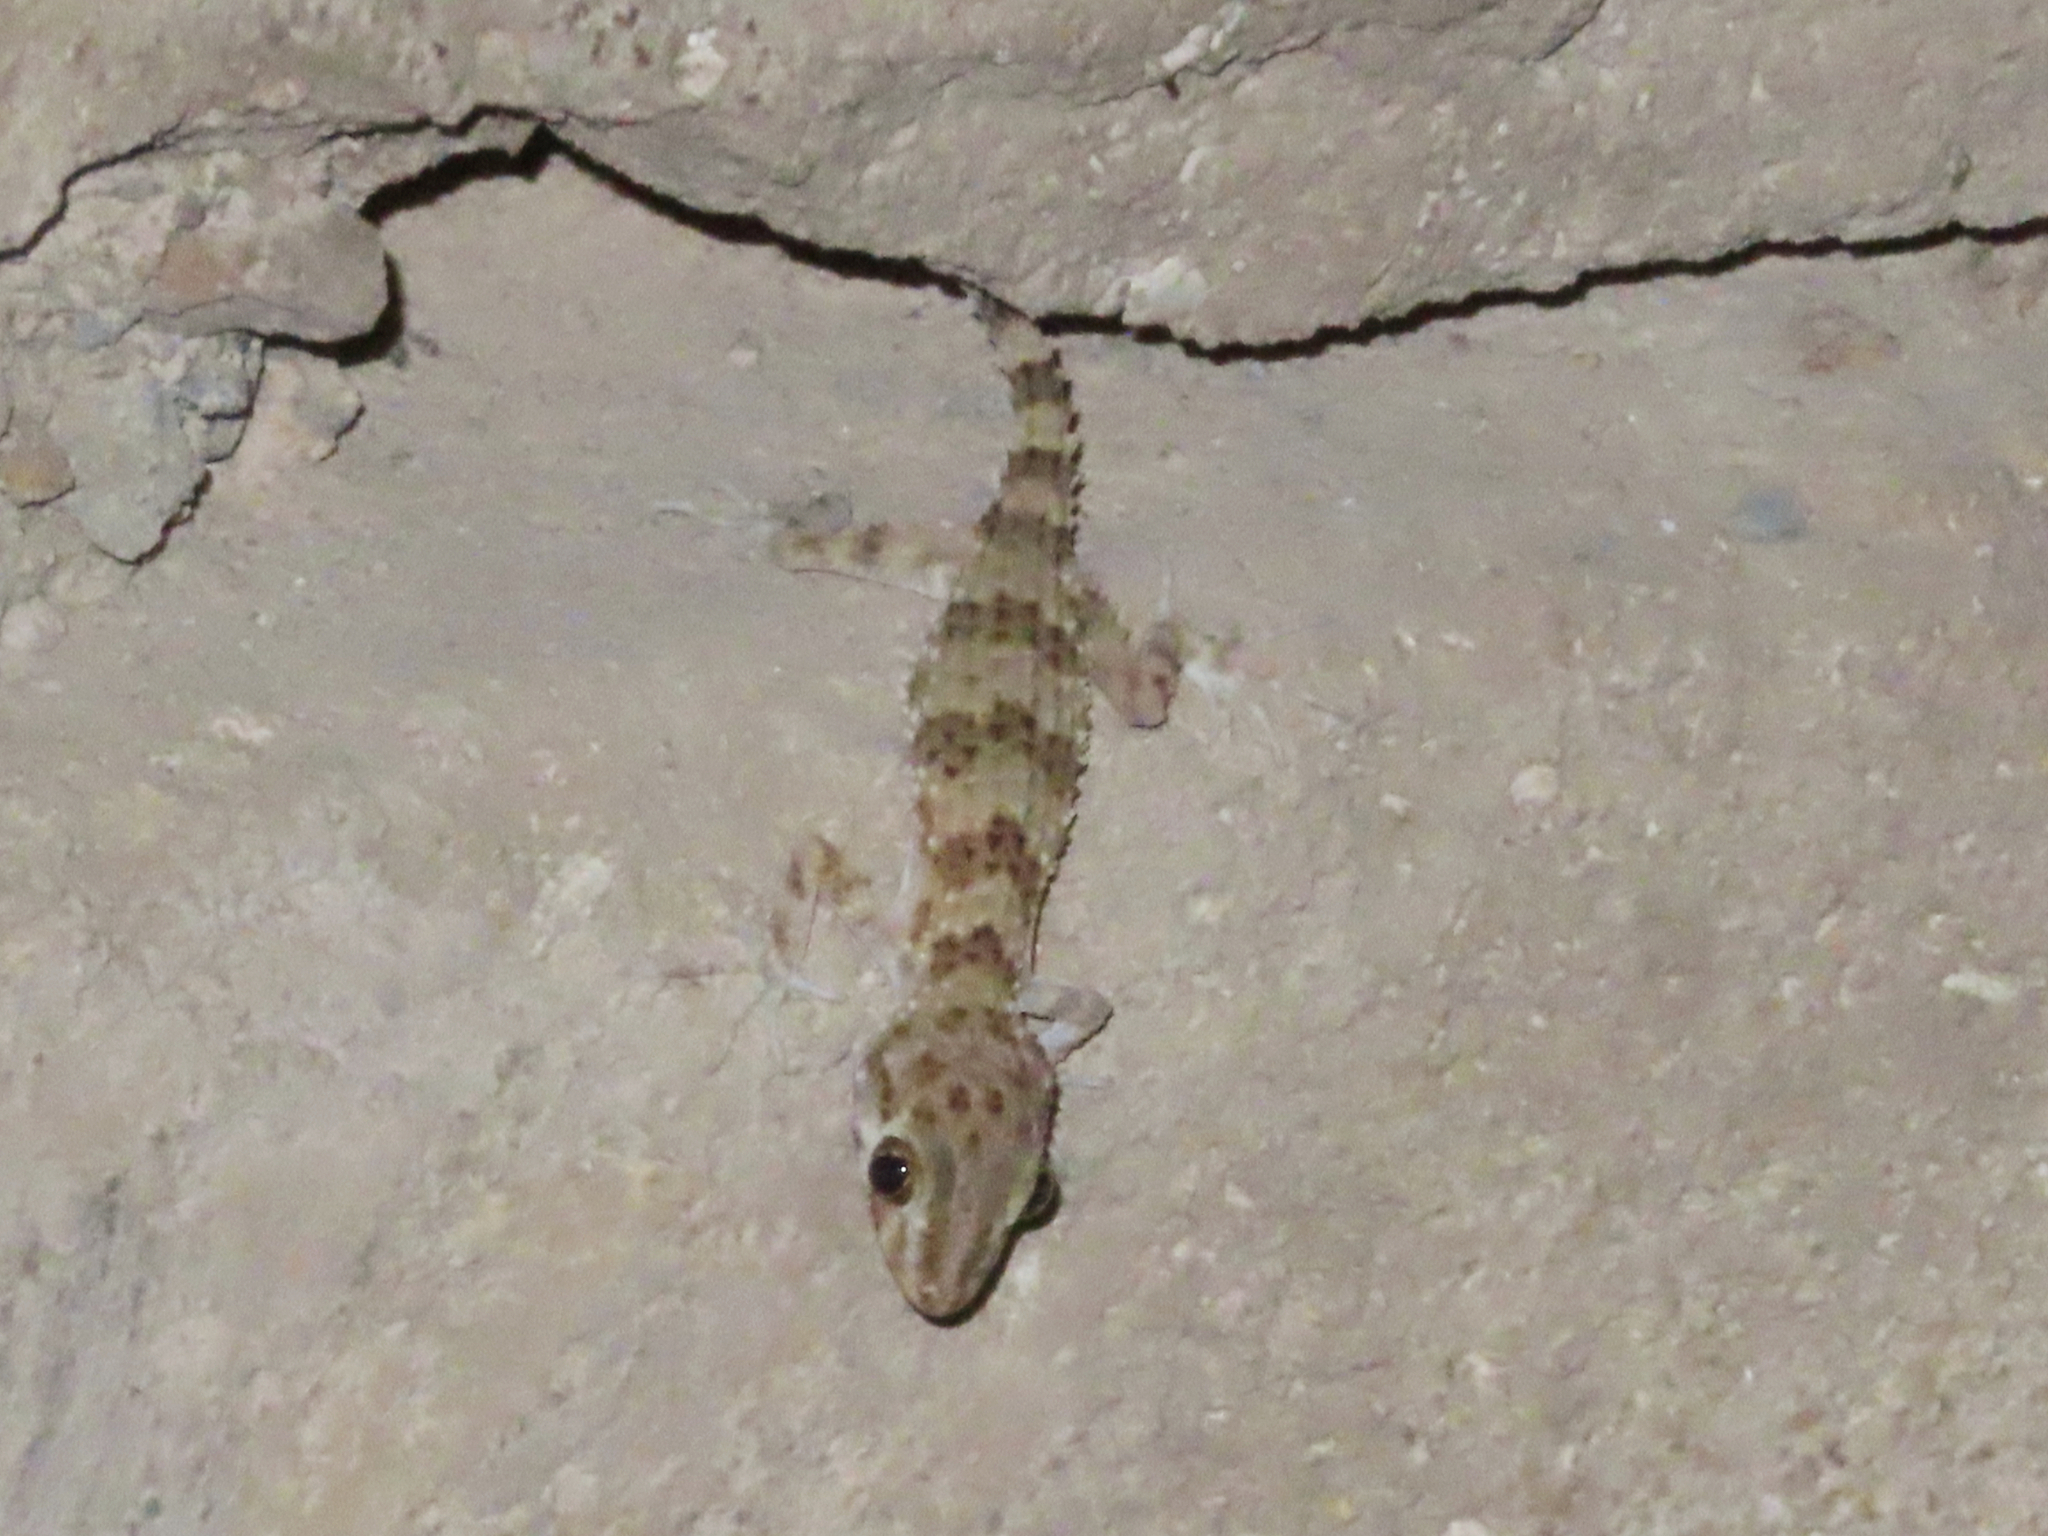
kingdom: Animalia
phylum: Chordata
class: Squamata
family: Gekkonidae
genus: Tenuidactylus
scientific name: Tenuidactylus caspius
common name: Caspian bent-toed gecko
